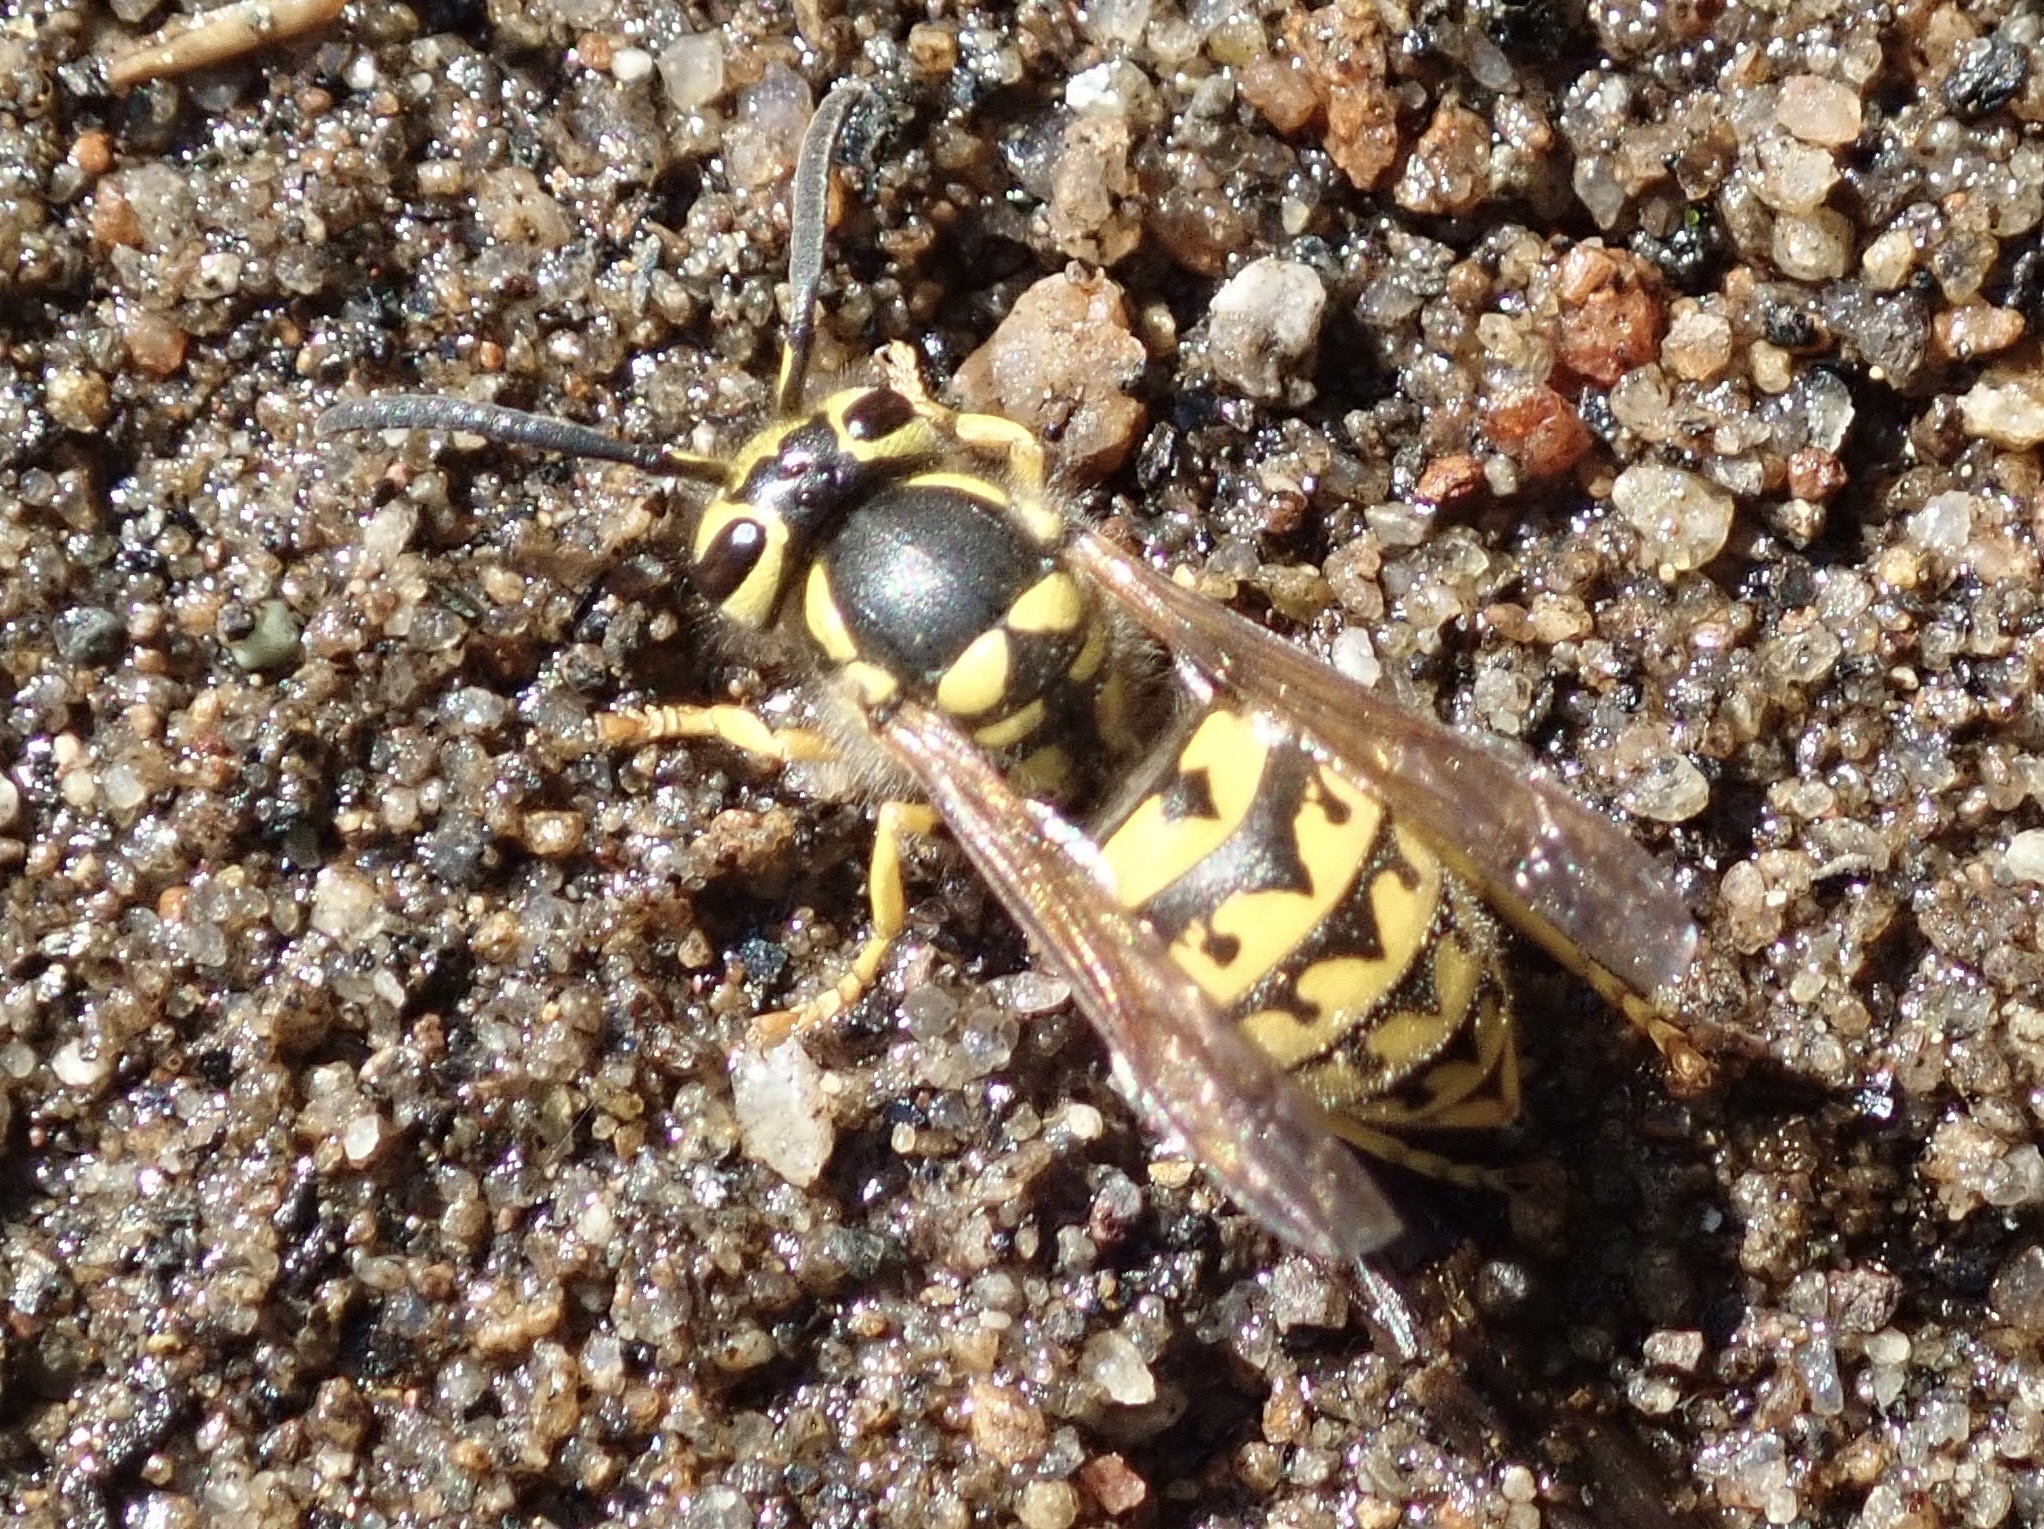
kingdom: Animalia
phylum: Arthropoda
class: Insecta
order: Hymenoptera
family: Vespidae
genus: Vespula
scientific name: Vespula pensylvanica
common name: Western yellowjacket
